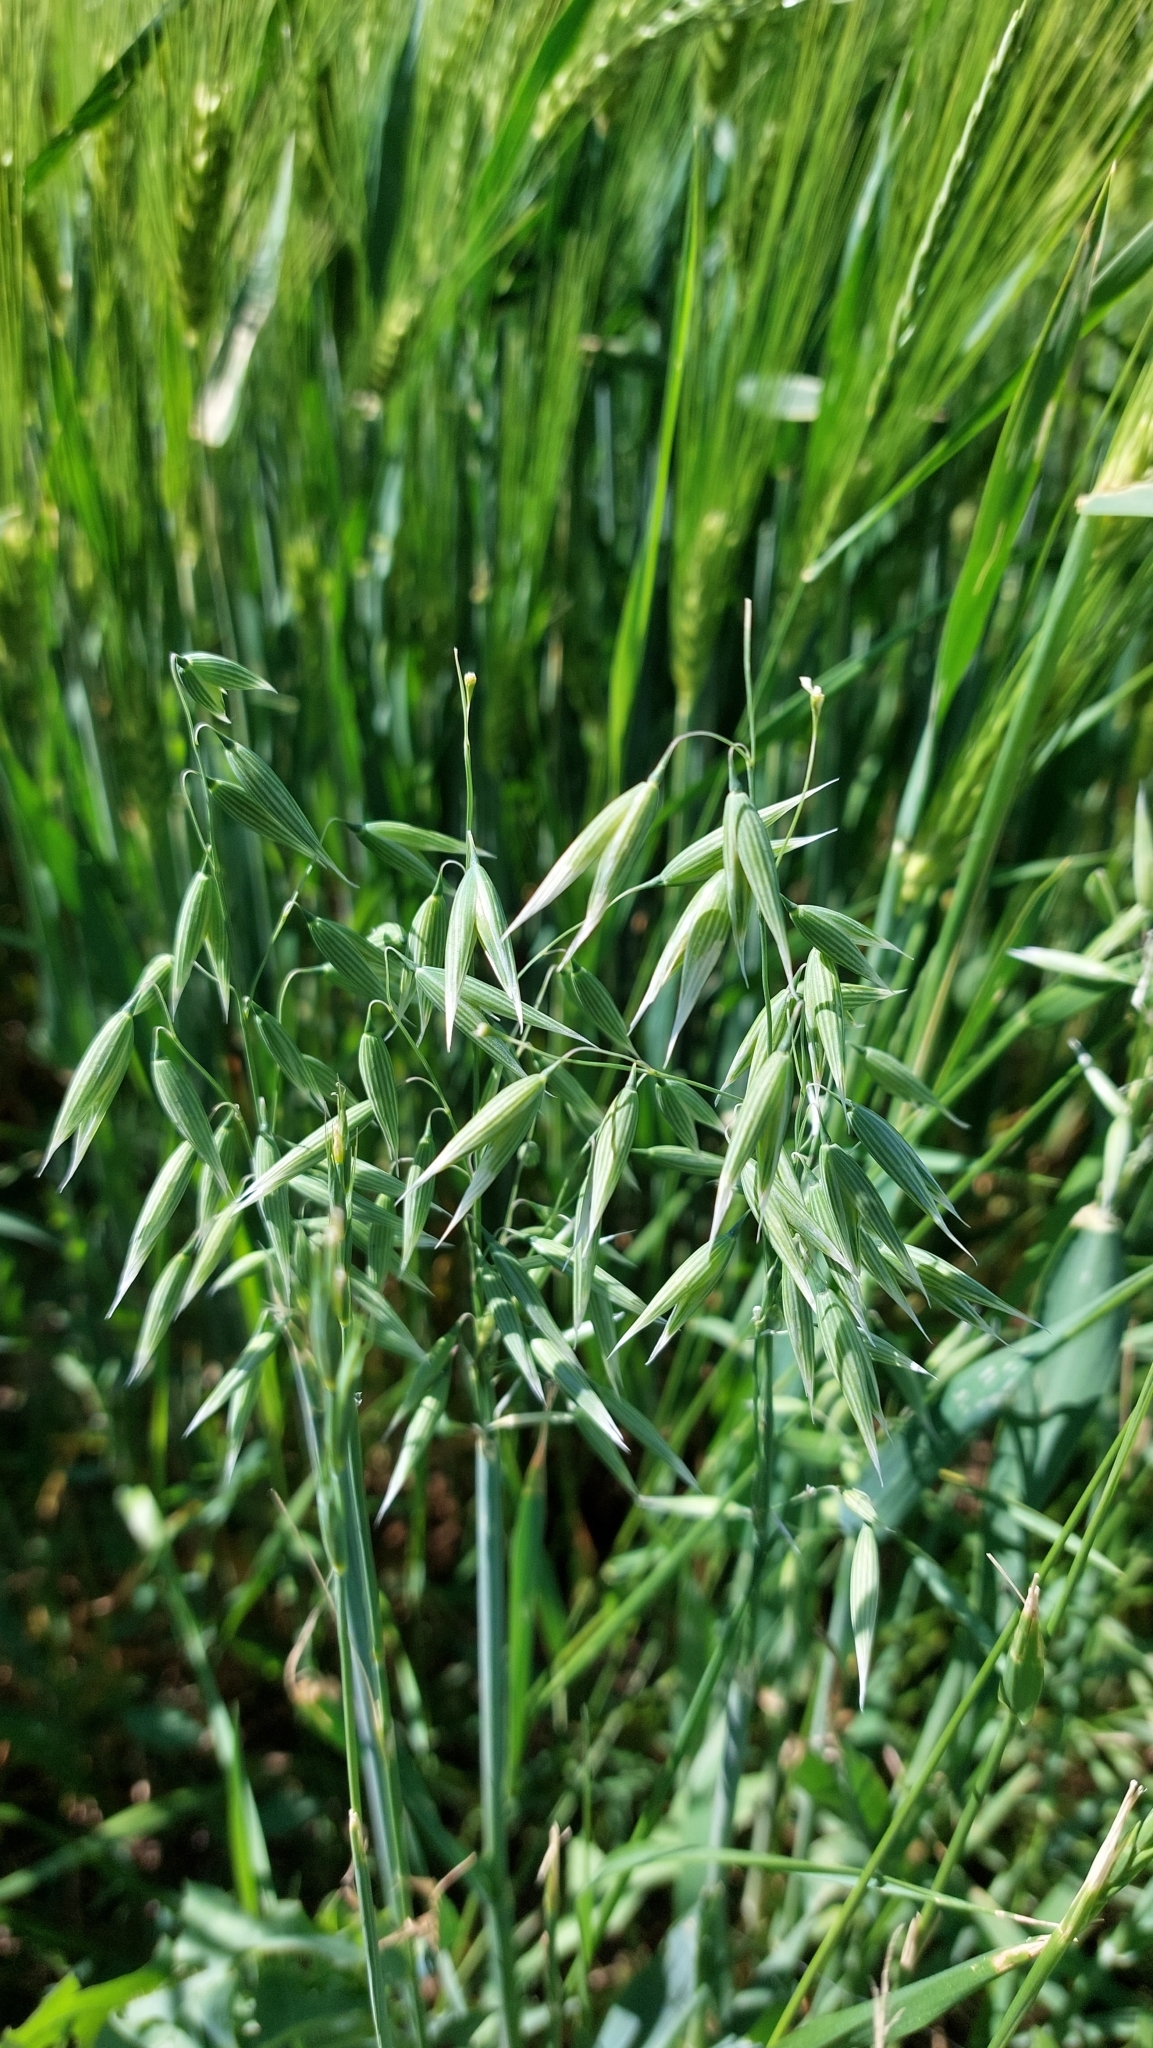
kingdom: Plantae
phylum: Tracheophyta
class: Liliopsida
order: Poales
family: Poaceae
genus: Avena
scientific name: Avena sativa
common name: Oat
